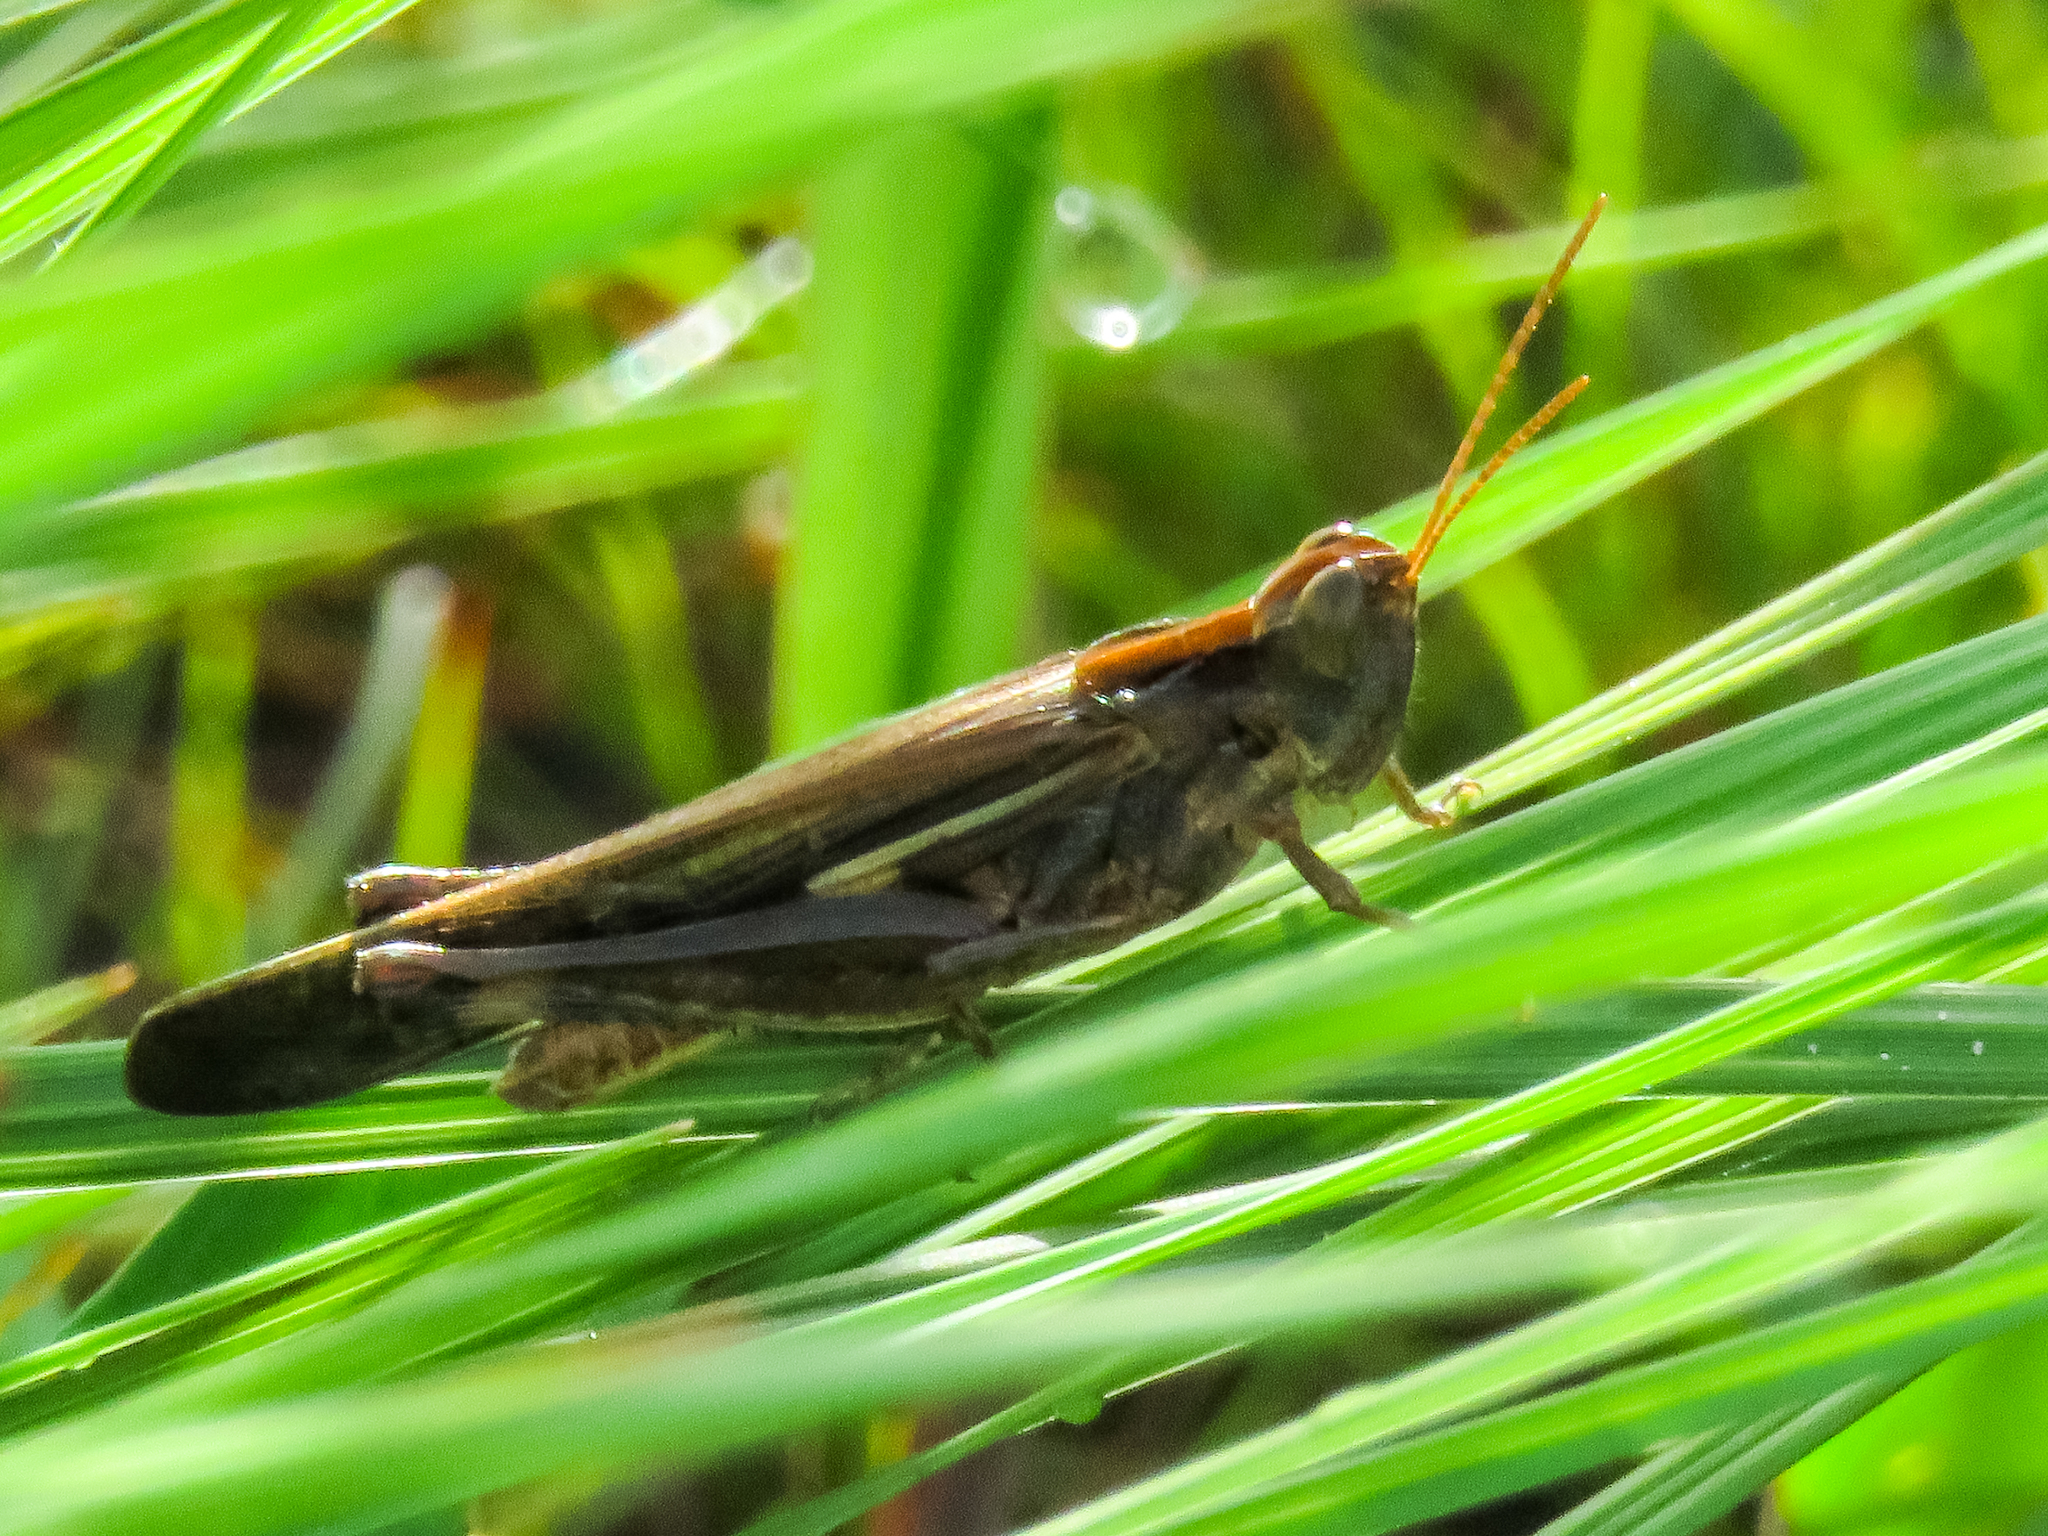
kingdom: Animalia
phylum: Arthropoda
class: Insecta
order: Orthoptera
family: Acrididae
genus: Aiolopus
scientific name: Aiolopus thalassinus
